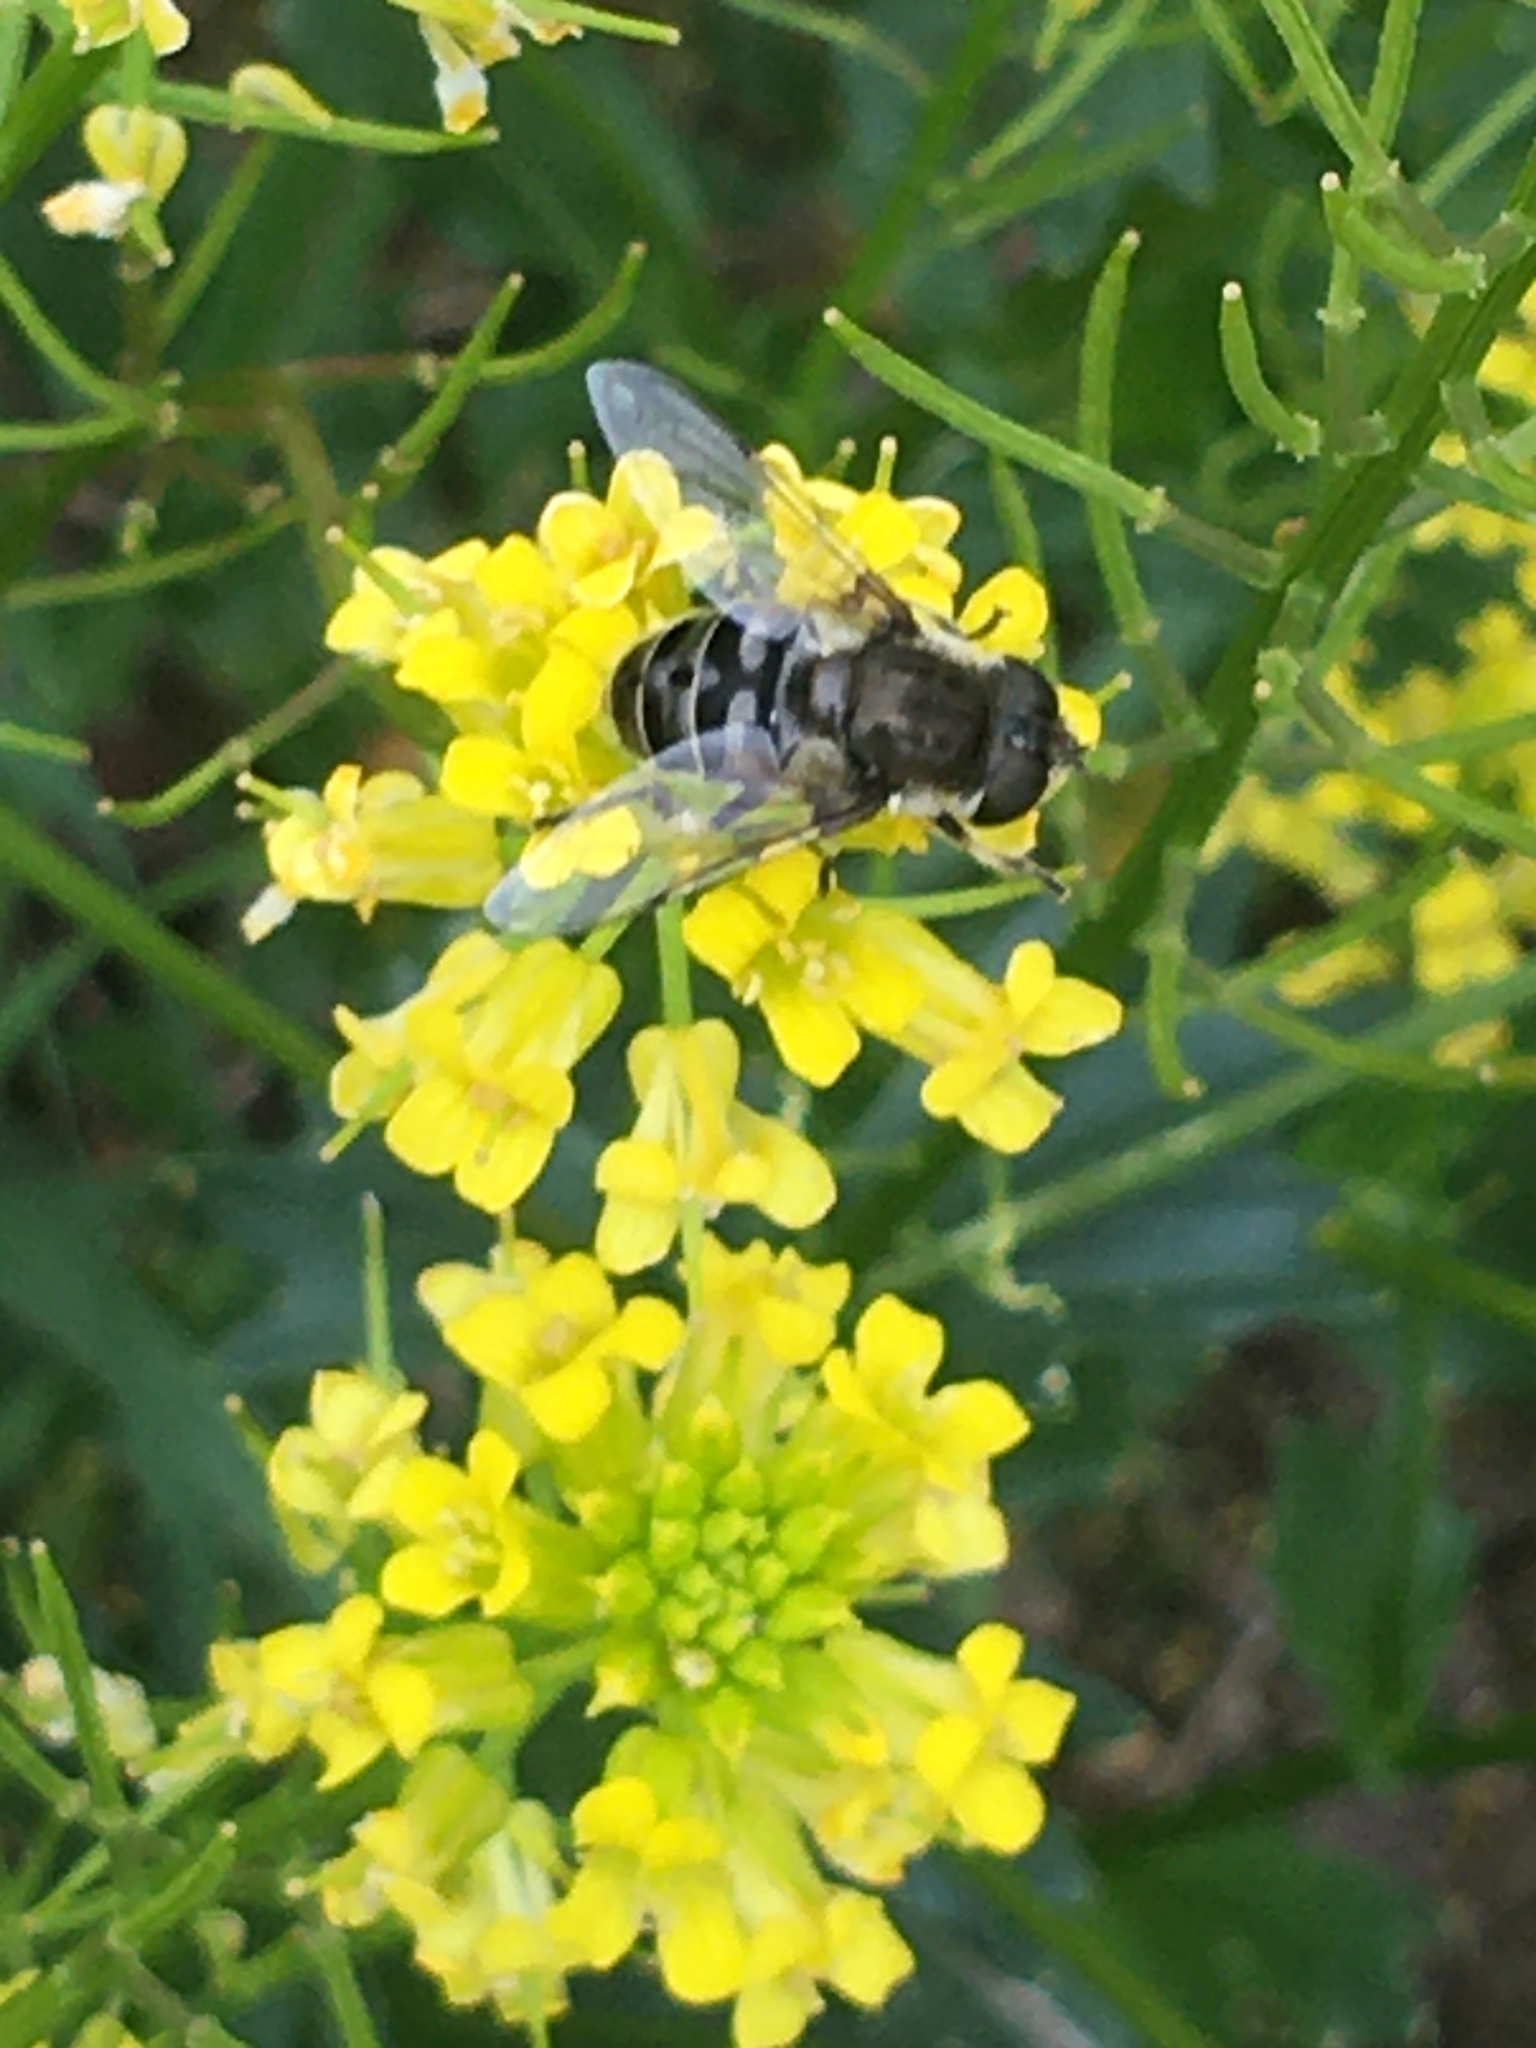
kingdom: Animalia
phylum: Arthropoda
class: Insecta
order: Diptera
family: Syrphidae
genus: Eristalis
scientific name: Eristalis dimidiata
